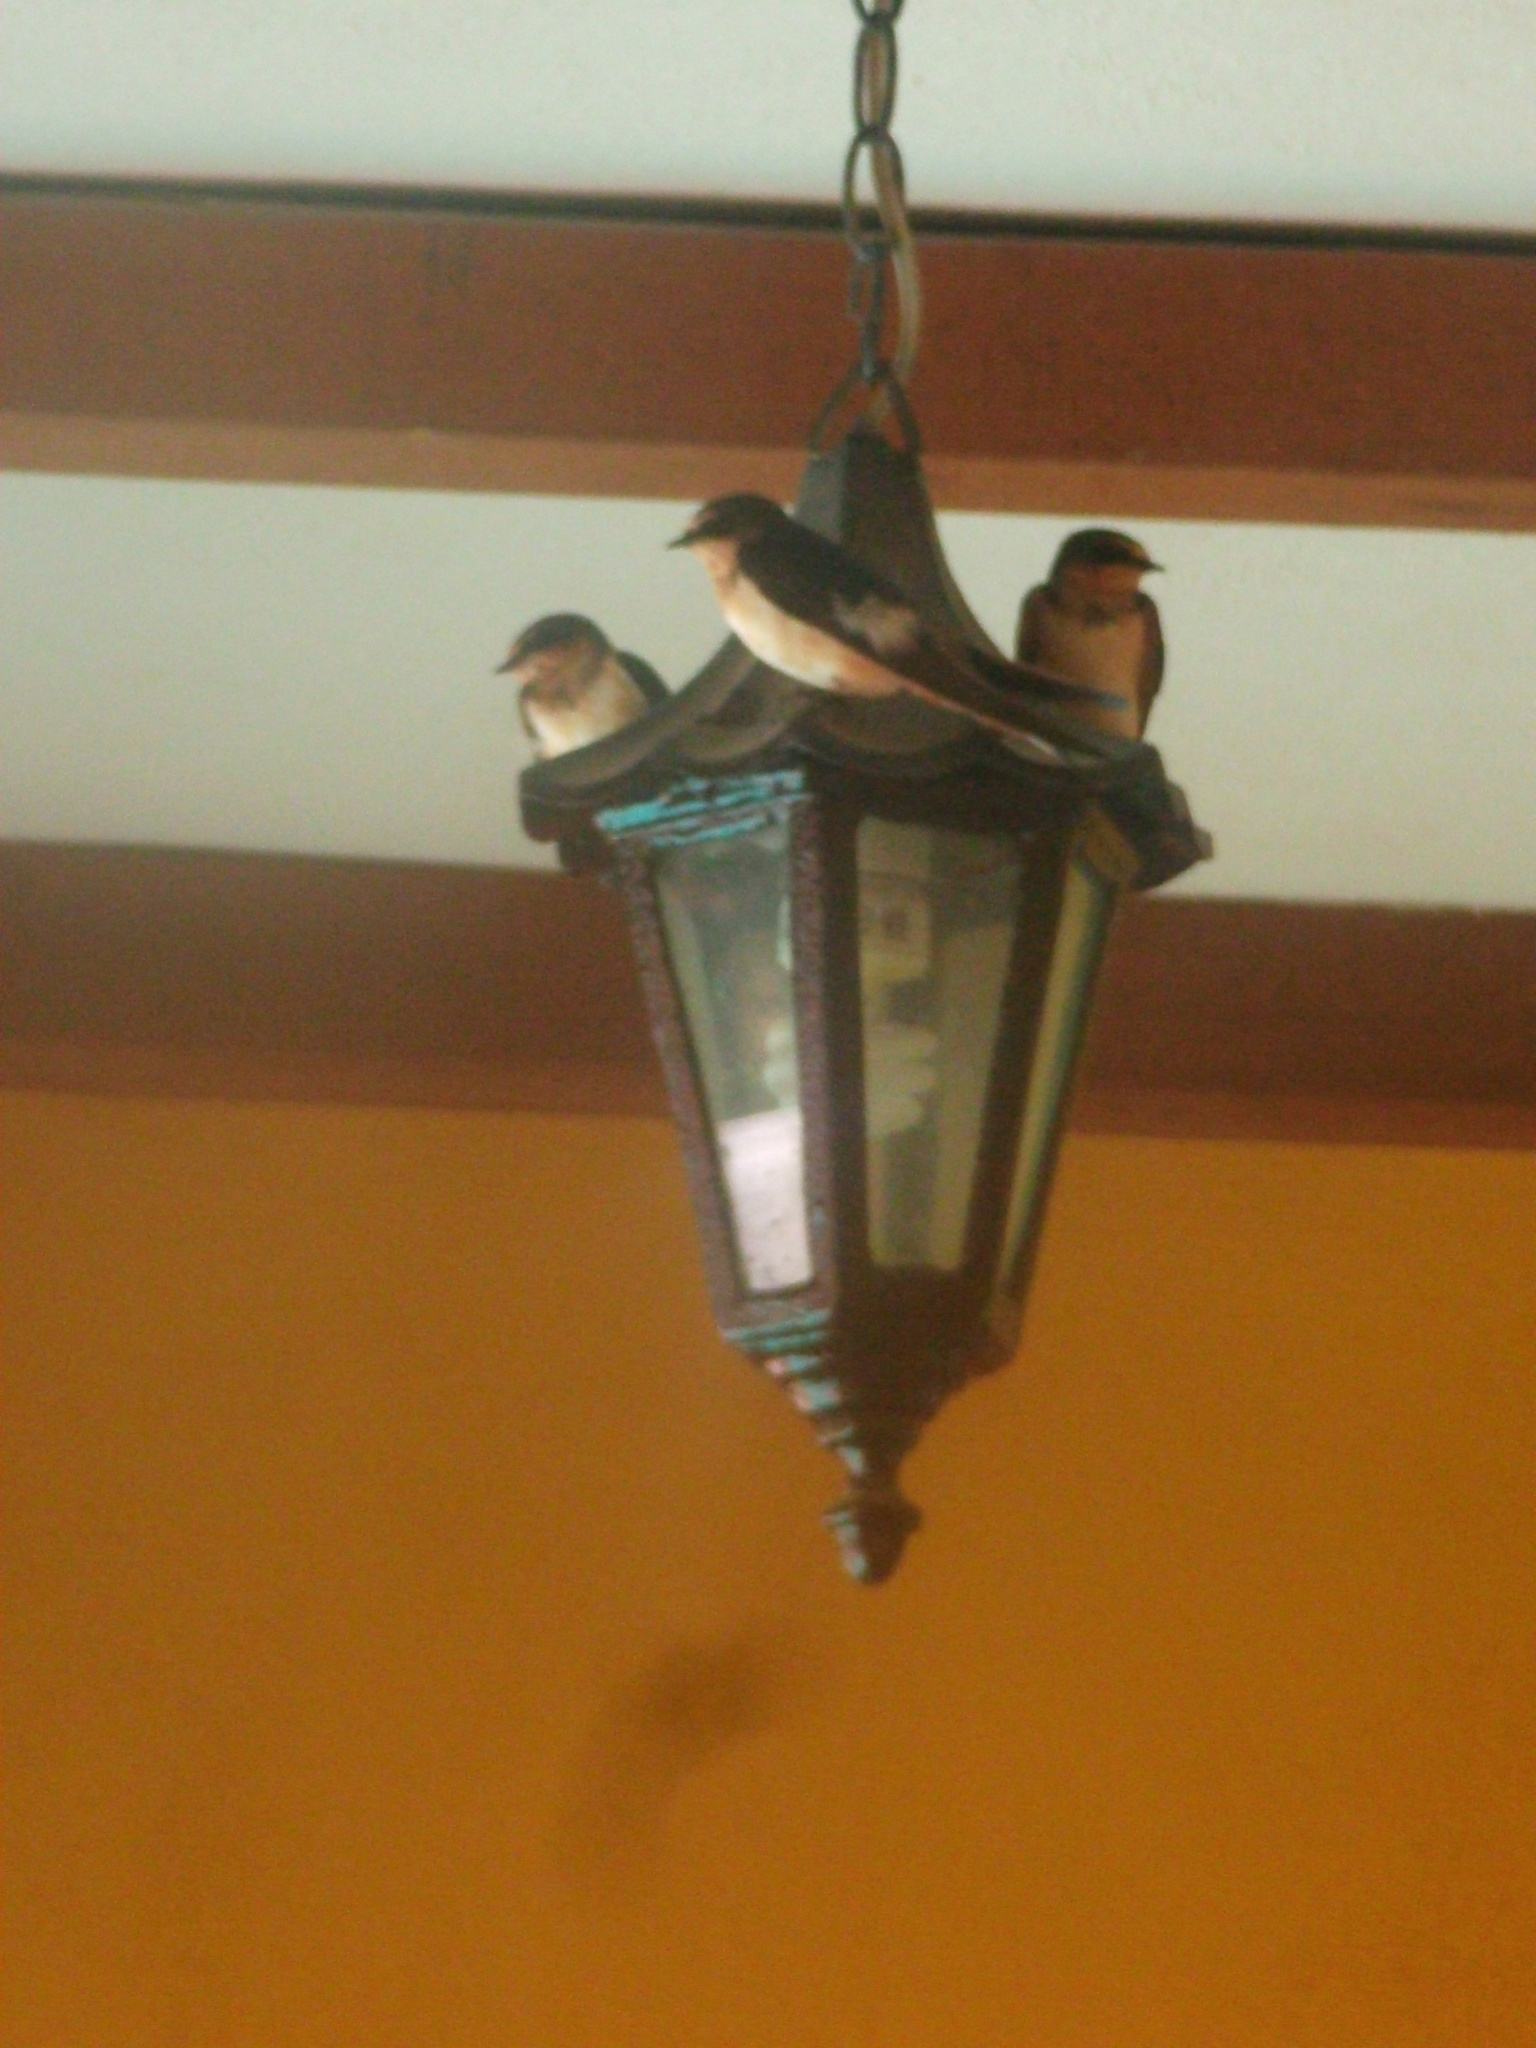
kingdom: Animalia
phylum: Chordata
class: Aves
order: Passeriformes
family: Hirundinidae
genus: Hirundo
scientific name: Hirundo rustica
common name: Barn swallow
